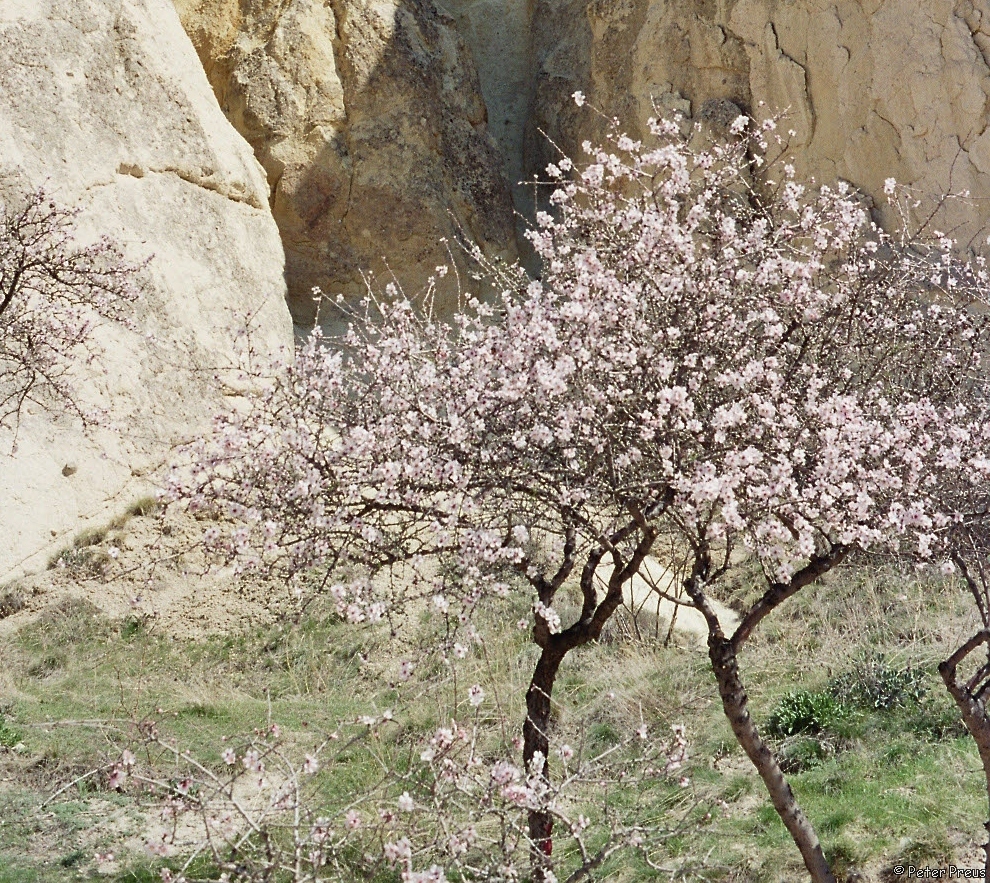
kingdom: Plantae
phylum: Tracheophyta
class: Magnoliopsida
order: Rosales
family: Rosaceae
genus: Prunus
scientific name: Prunus amygdalus
